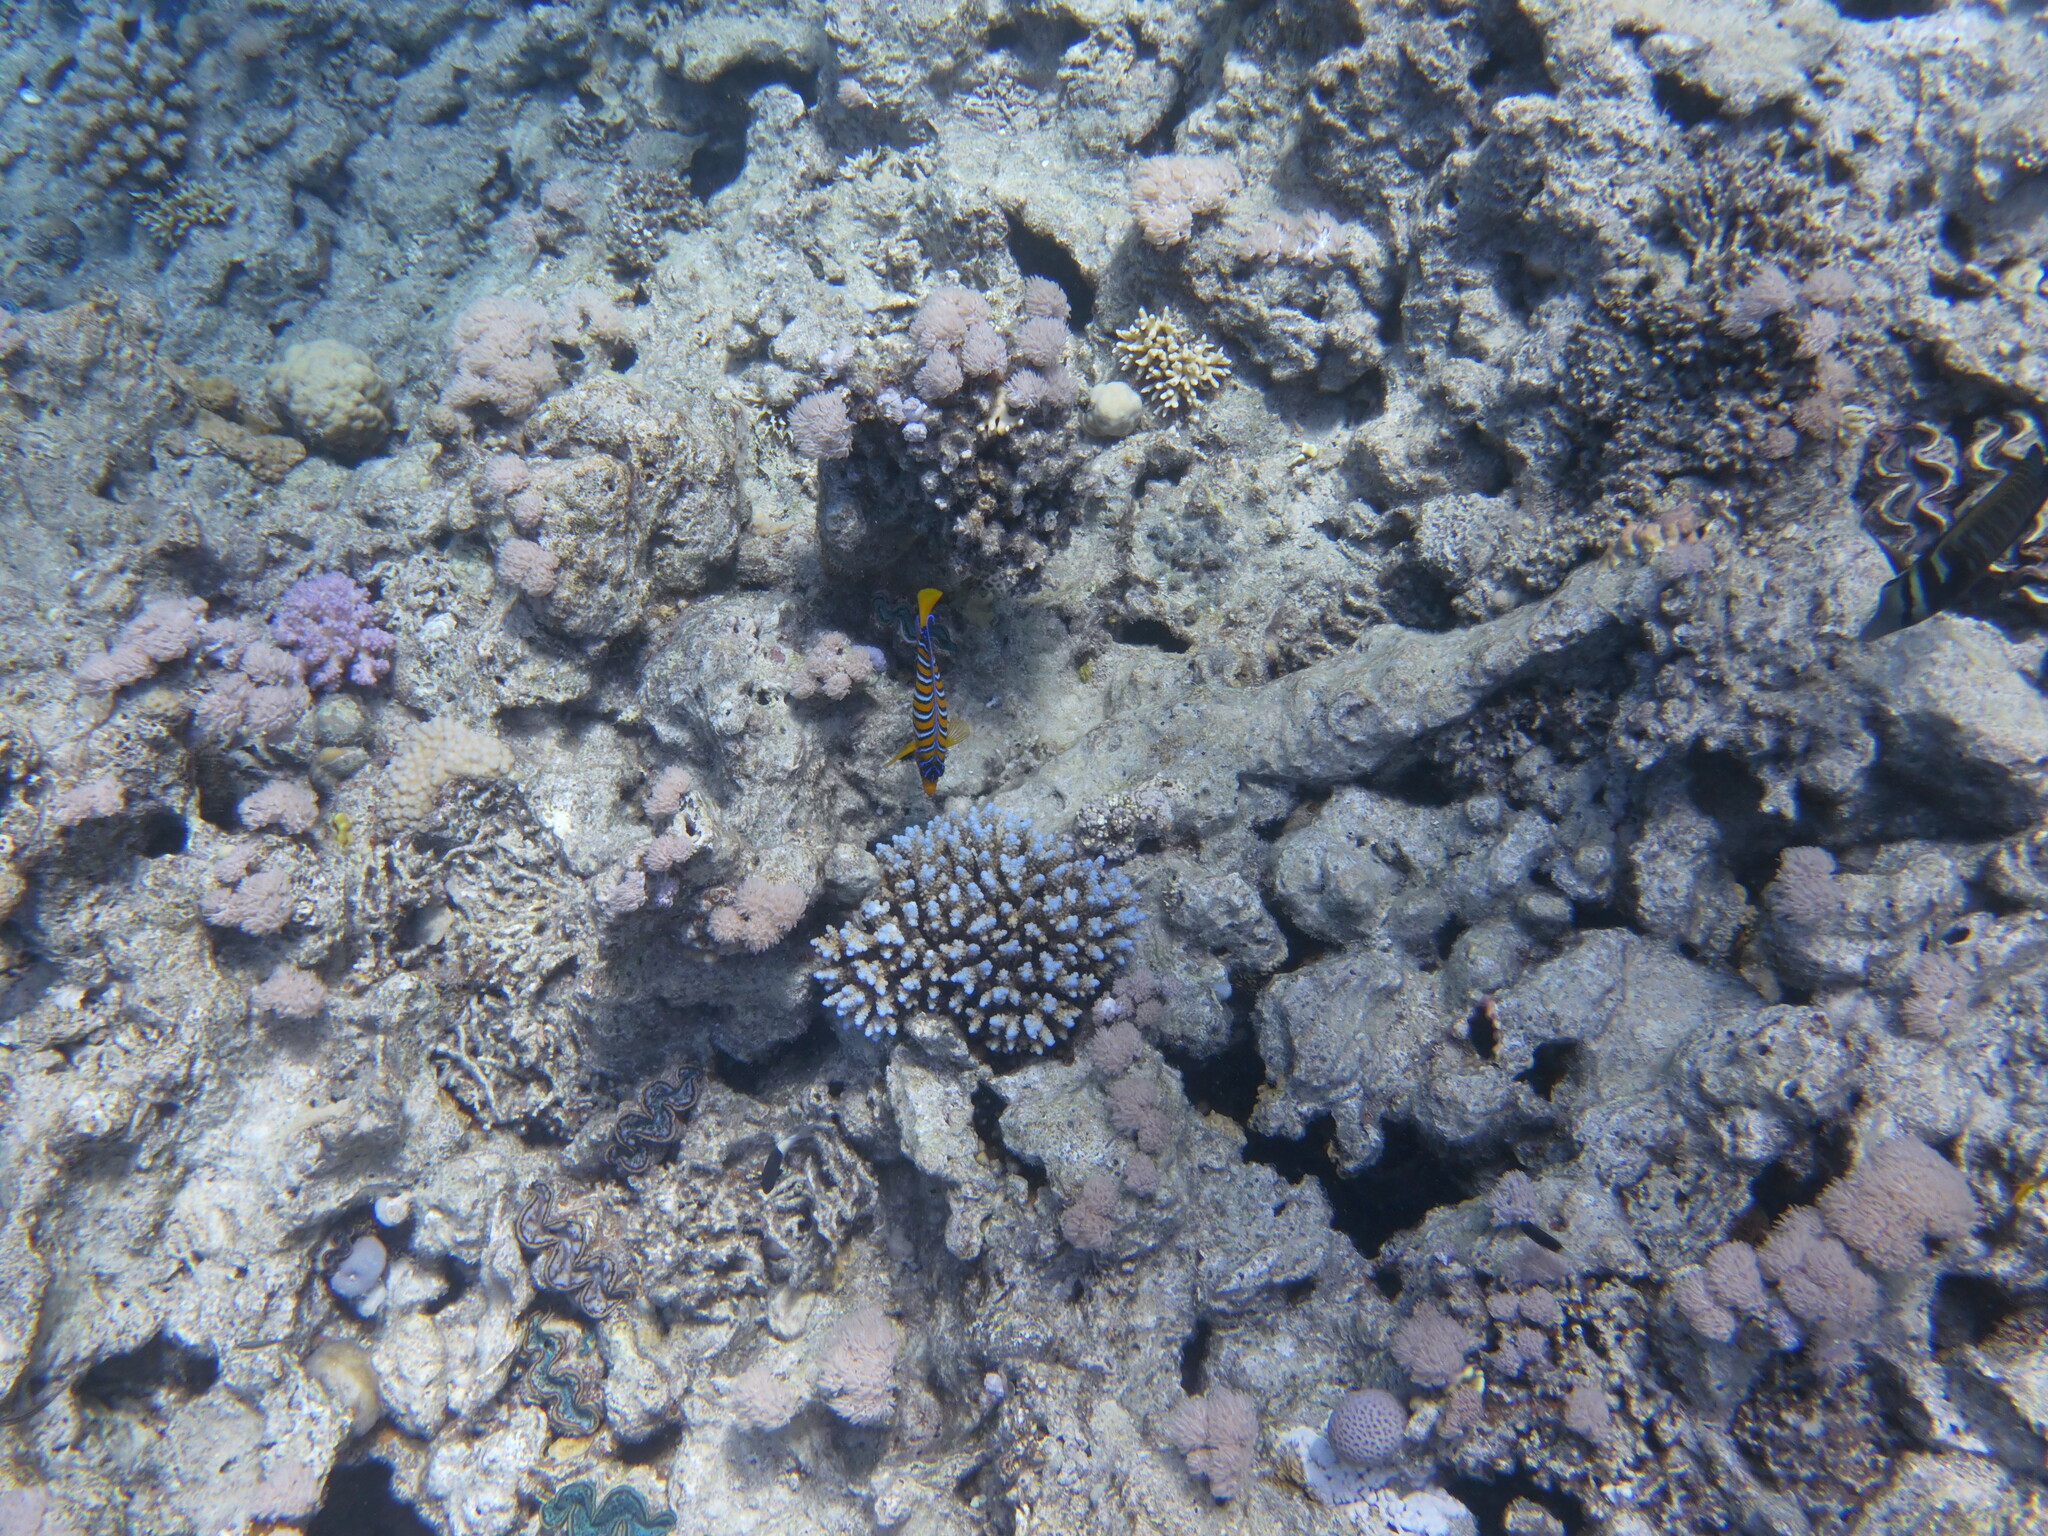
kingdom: Animalia
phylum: Chordata
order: Perciformes
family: Pomacanthidae
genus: Pygoplites
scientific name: Pygoplites diacanthus
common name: Regal angelfish
